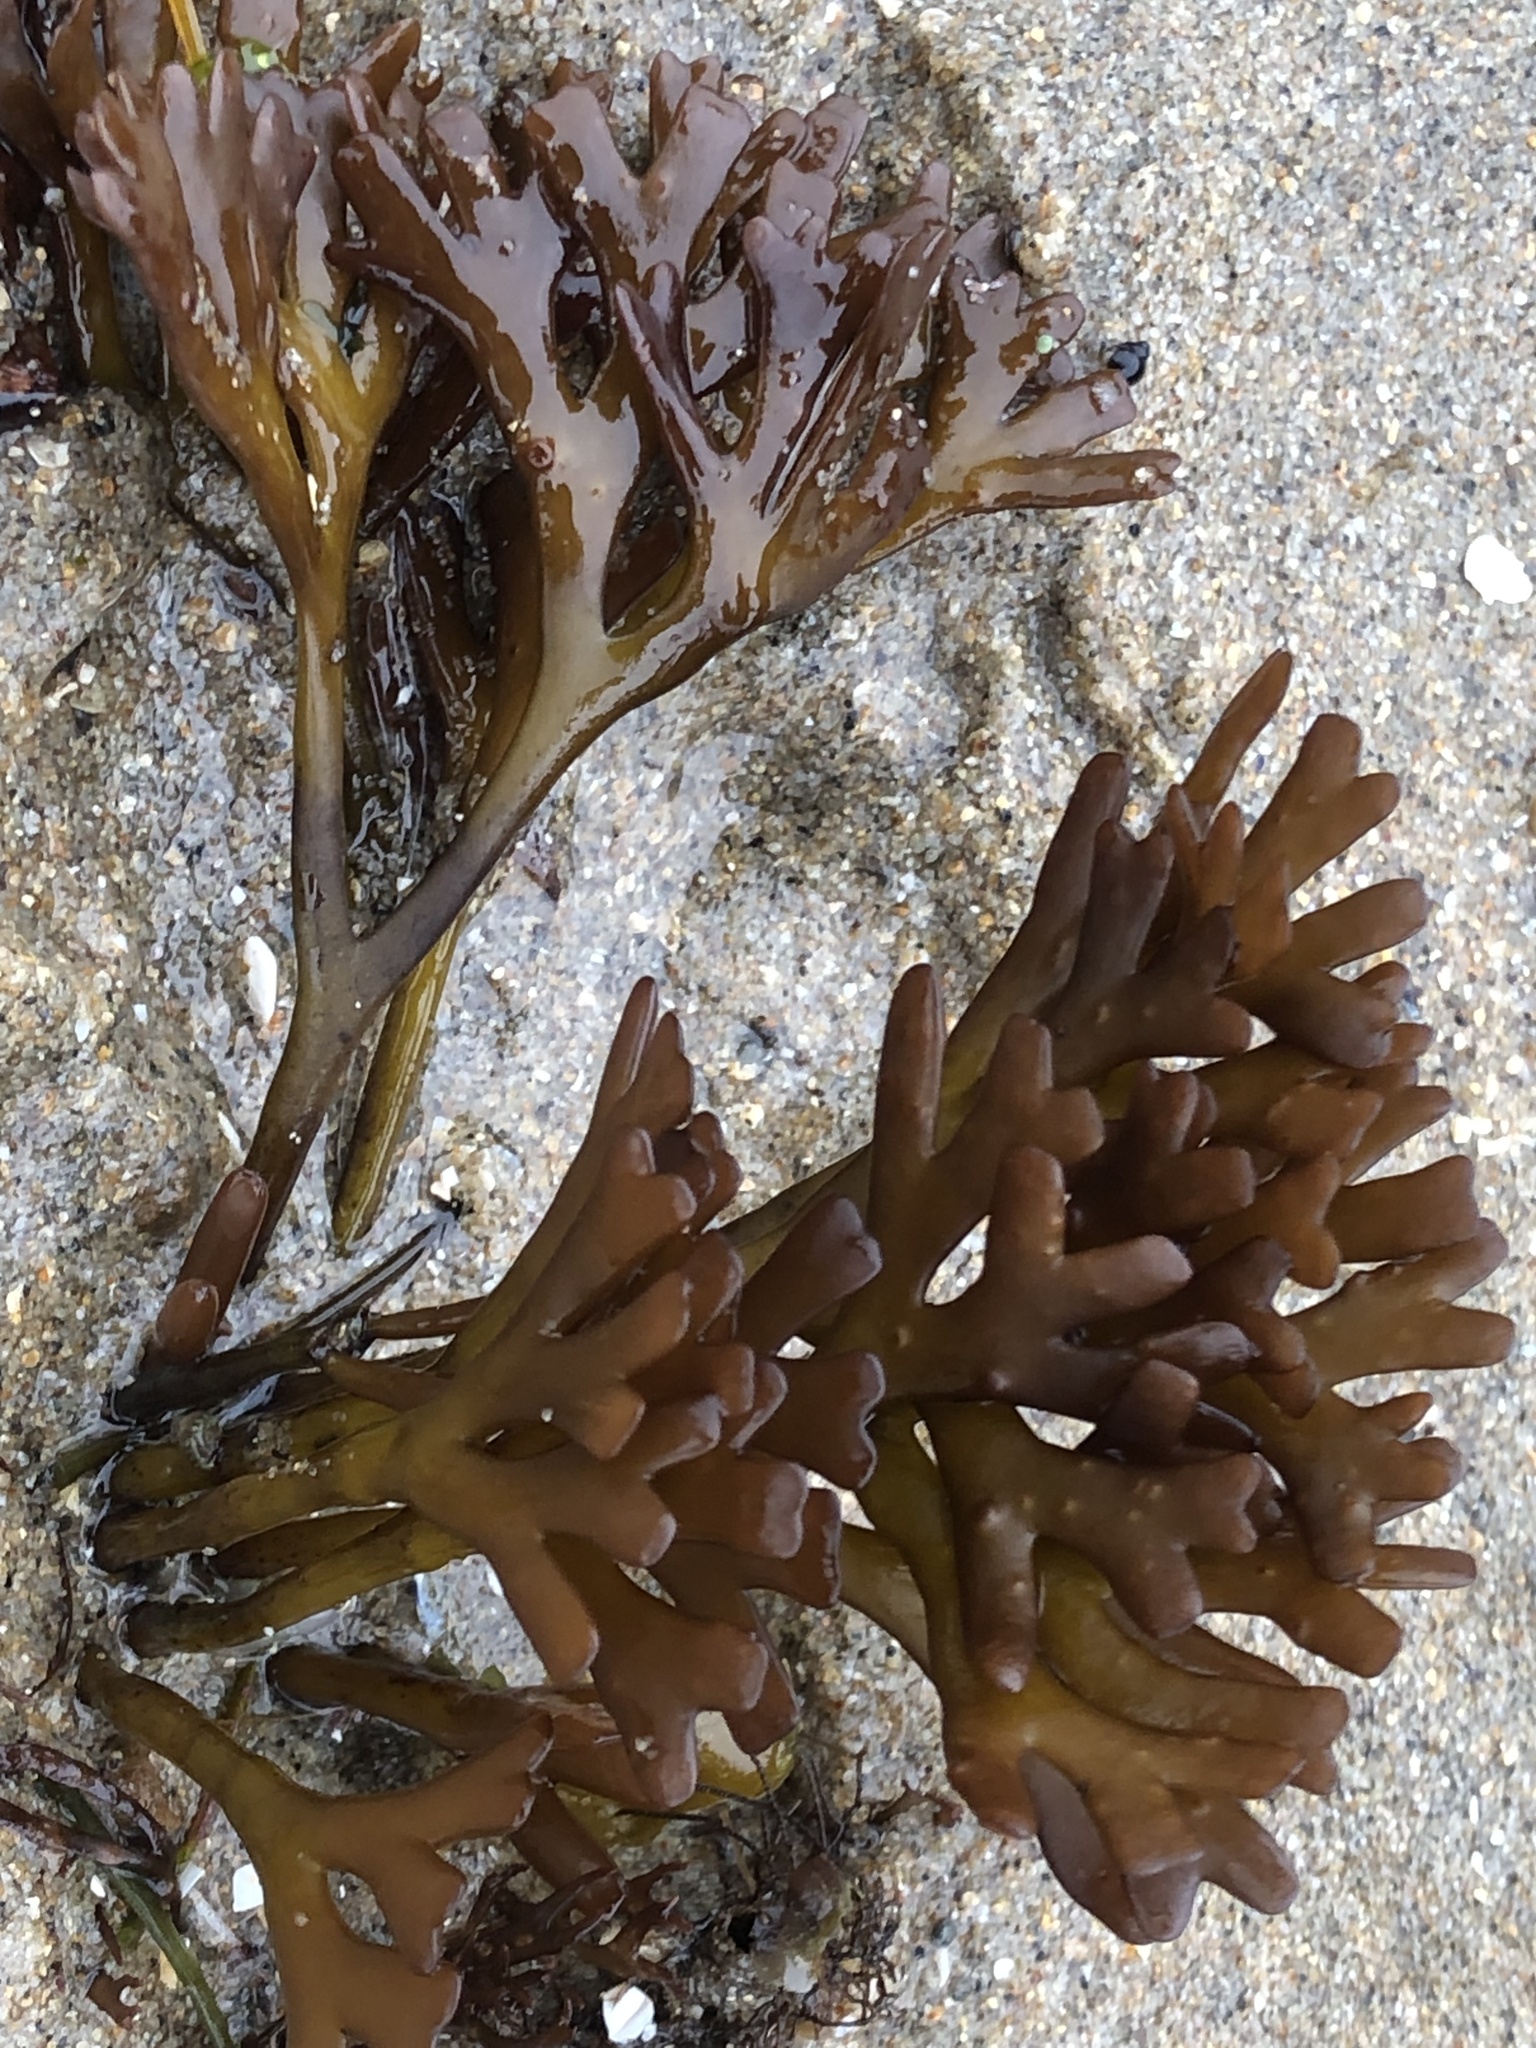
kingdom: Plantae
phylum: Rhodophyta
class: Florideophyceae
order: Gigartinales
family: Phyllophoraceae
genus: Ahnfeltiopsis
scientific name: Ahnfeltiopsis linearis
